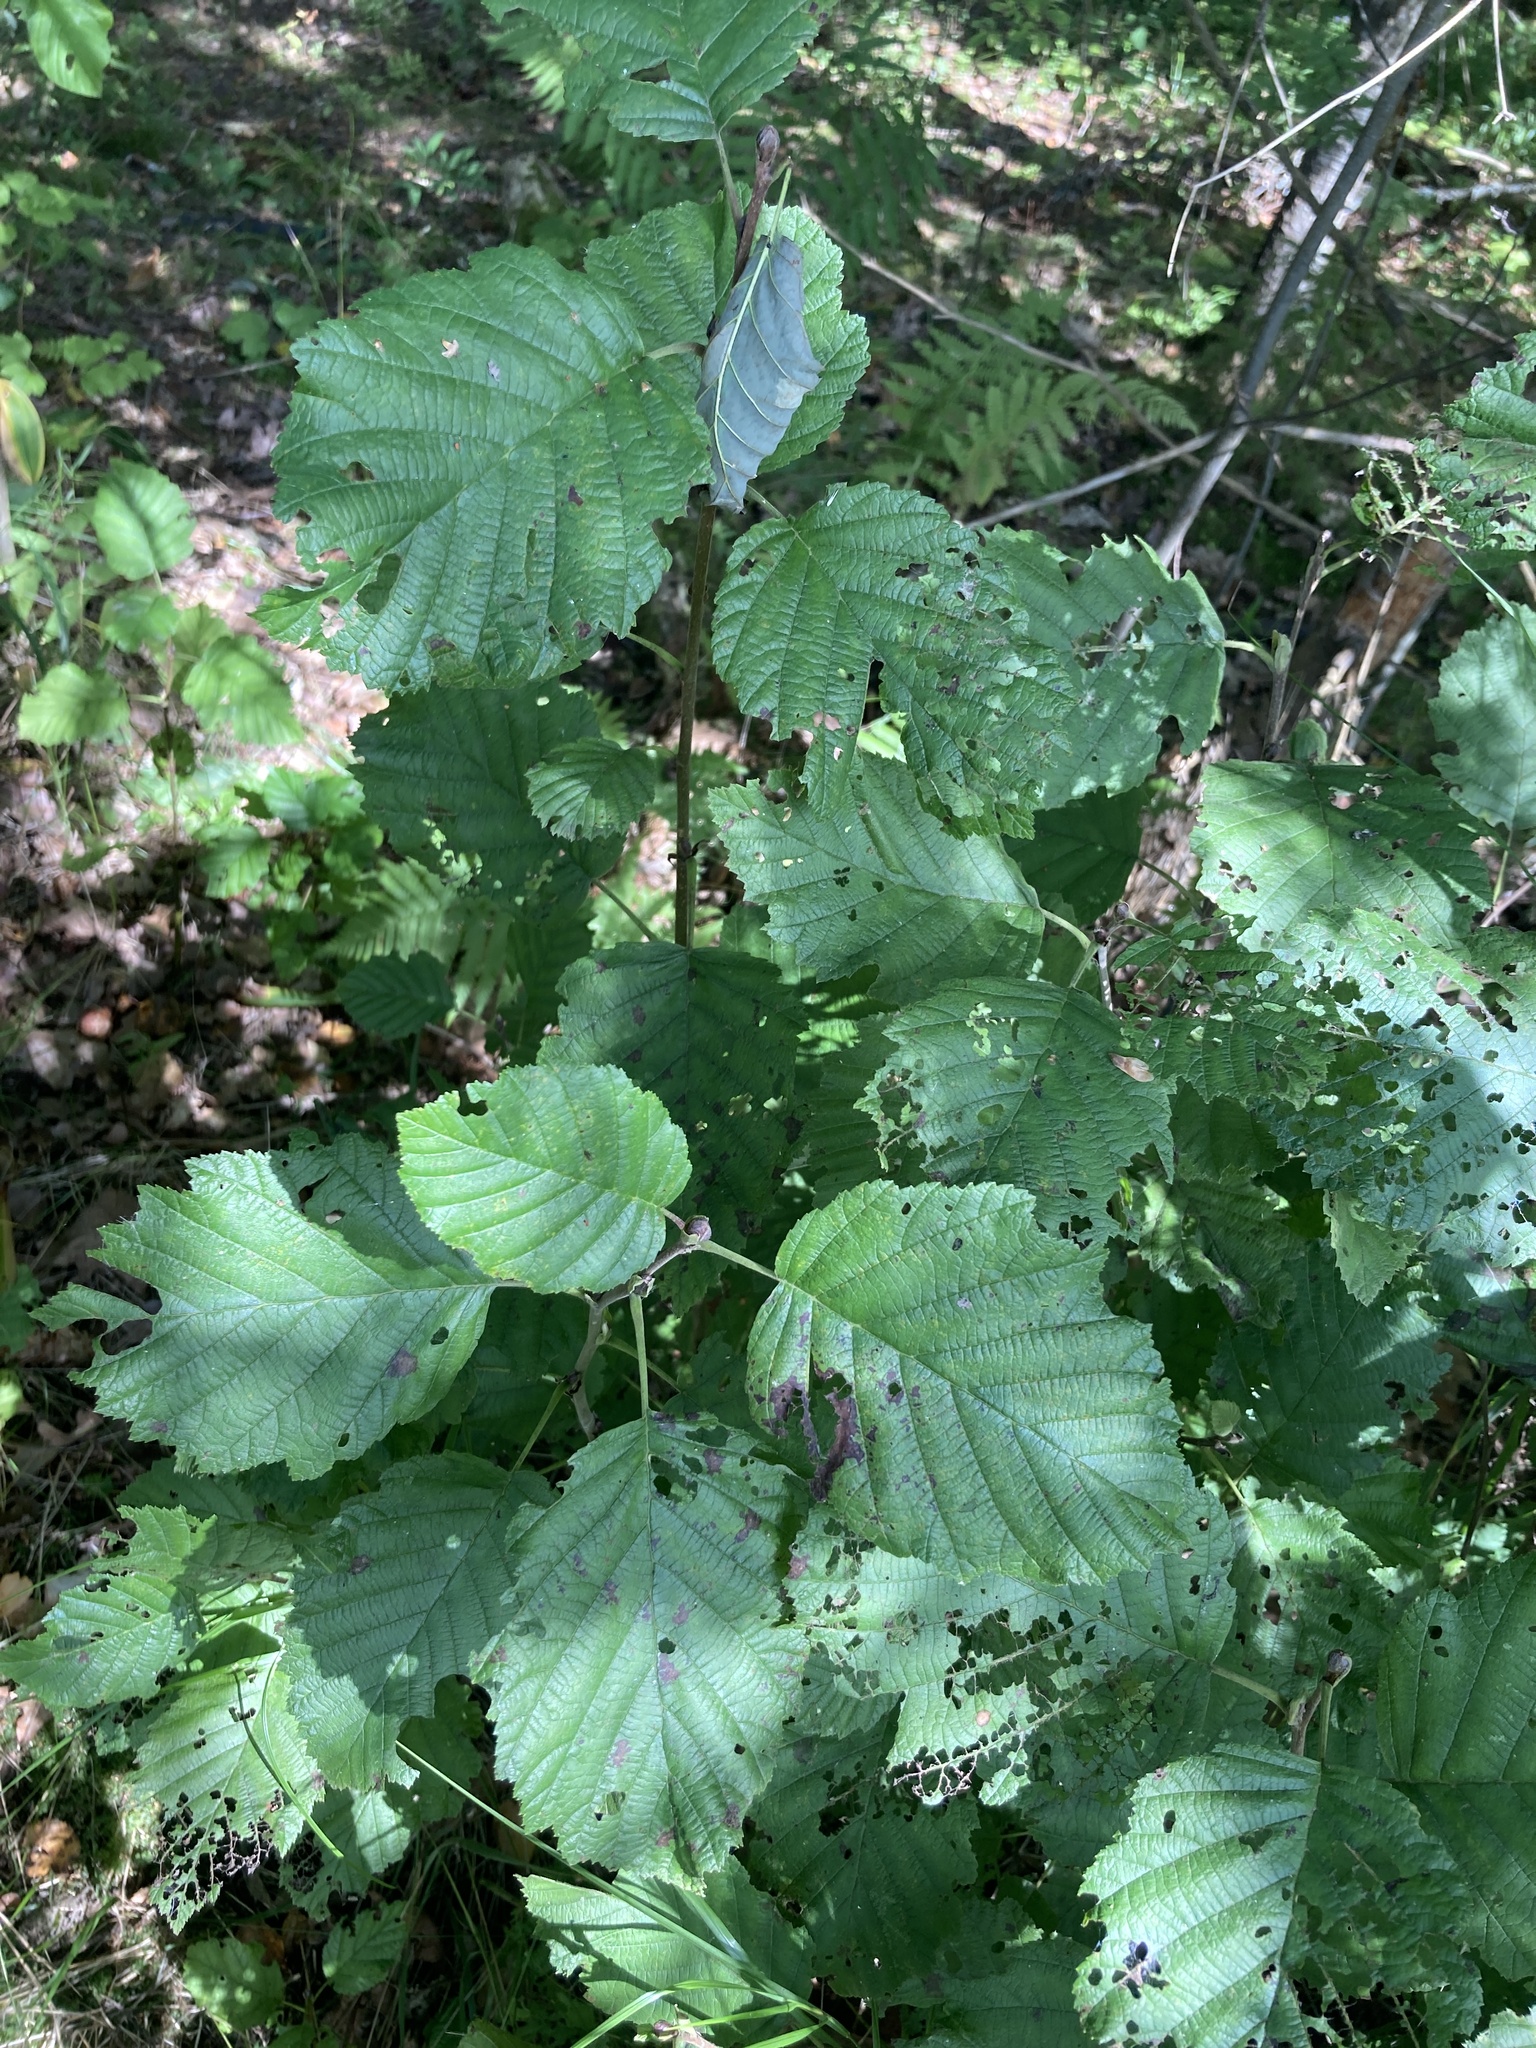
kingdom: Plantae
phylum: Tracheophyta
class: Magnoliopsida
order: Fagales
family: Betulaceae
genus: Alnus
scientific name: Alnus incana
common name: Grey alder
